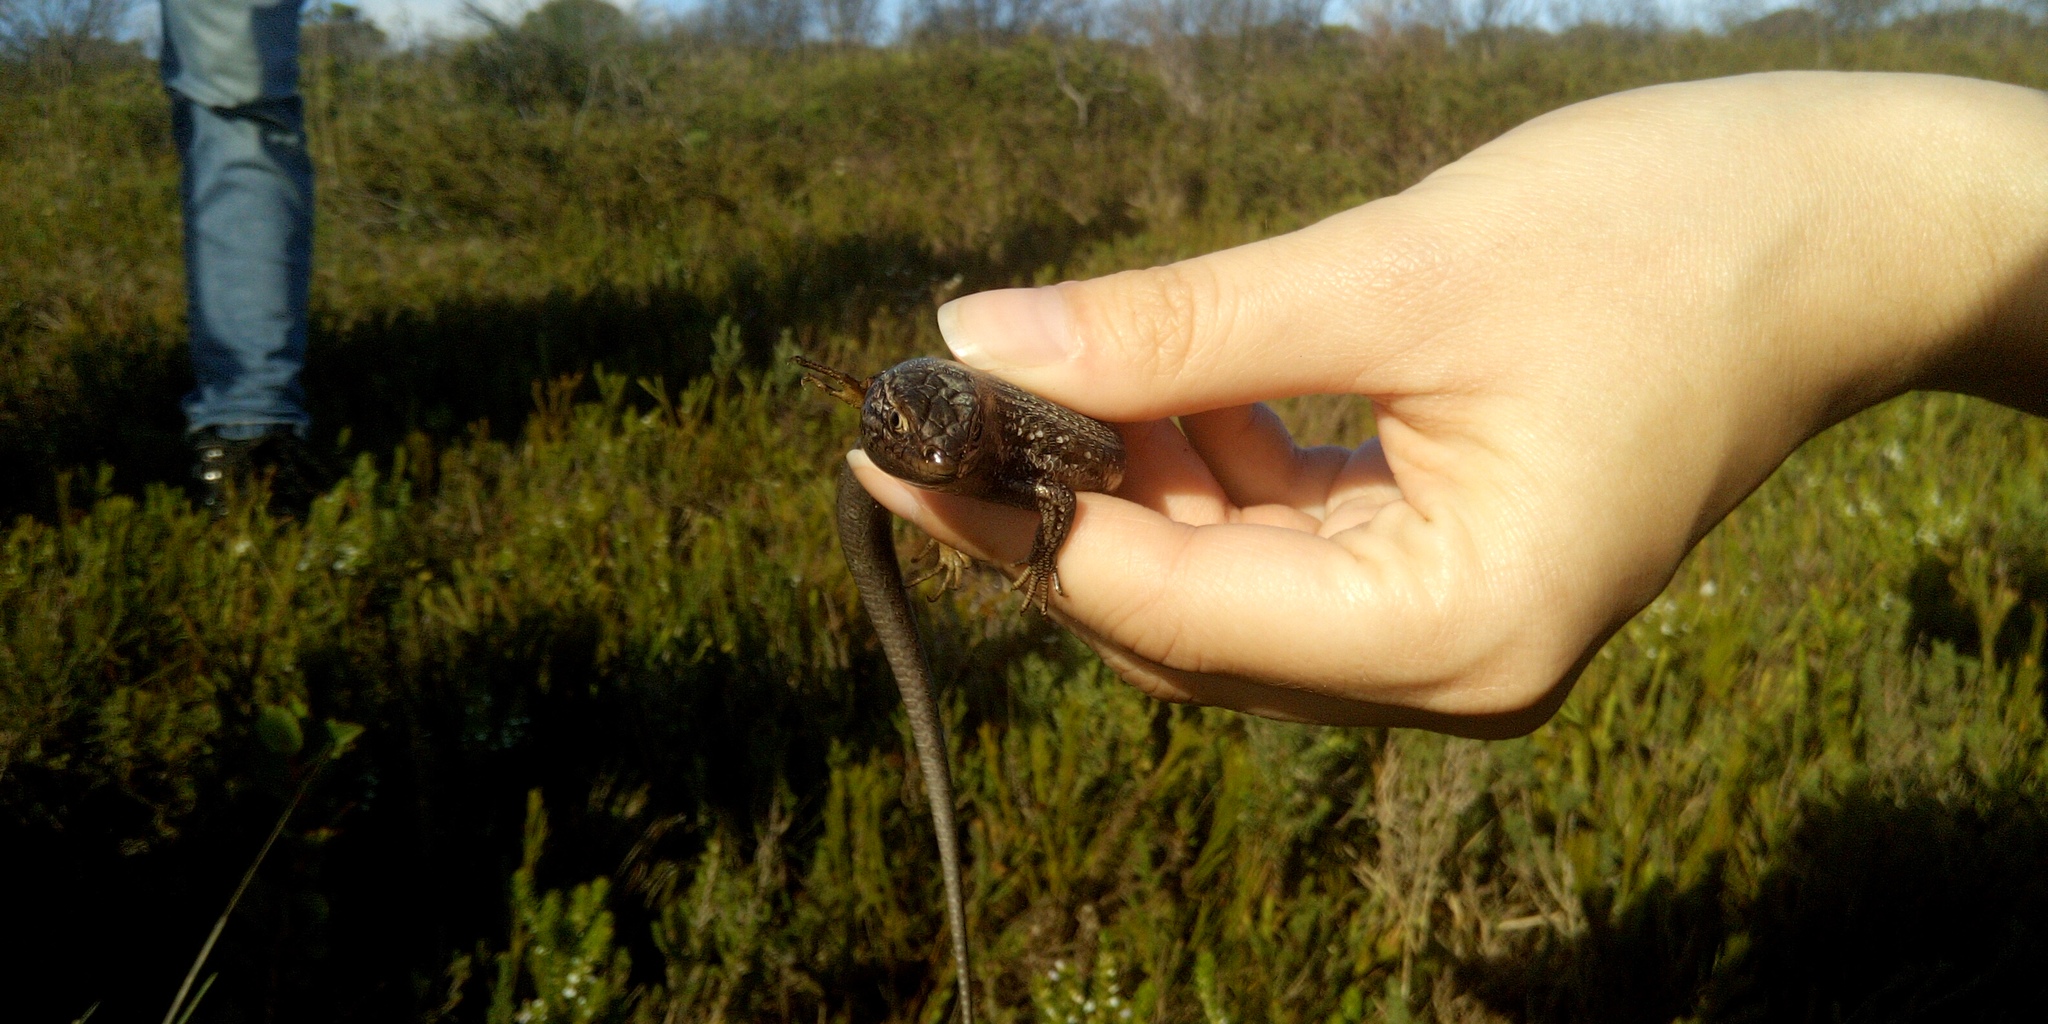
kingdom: Animalia
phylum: Chordata
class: Squamata
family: Scincidae
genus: Trachylepis
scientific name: Trachylepis capensis
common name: Cape skink
